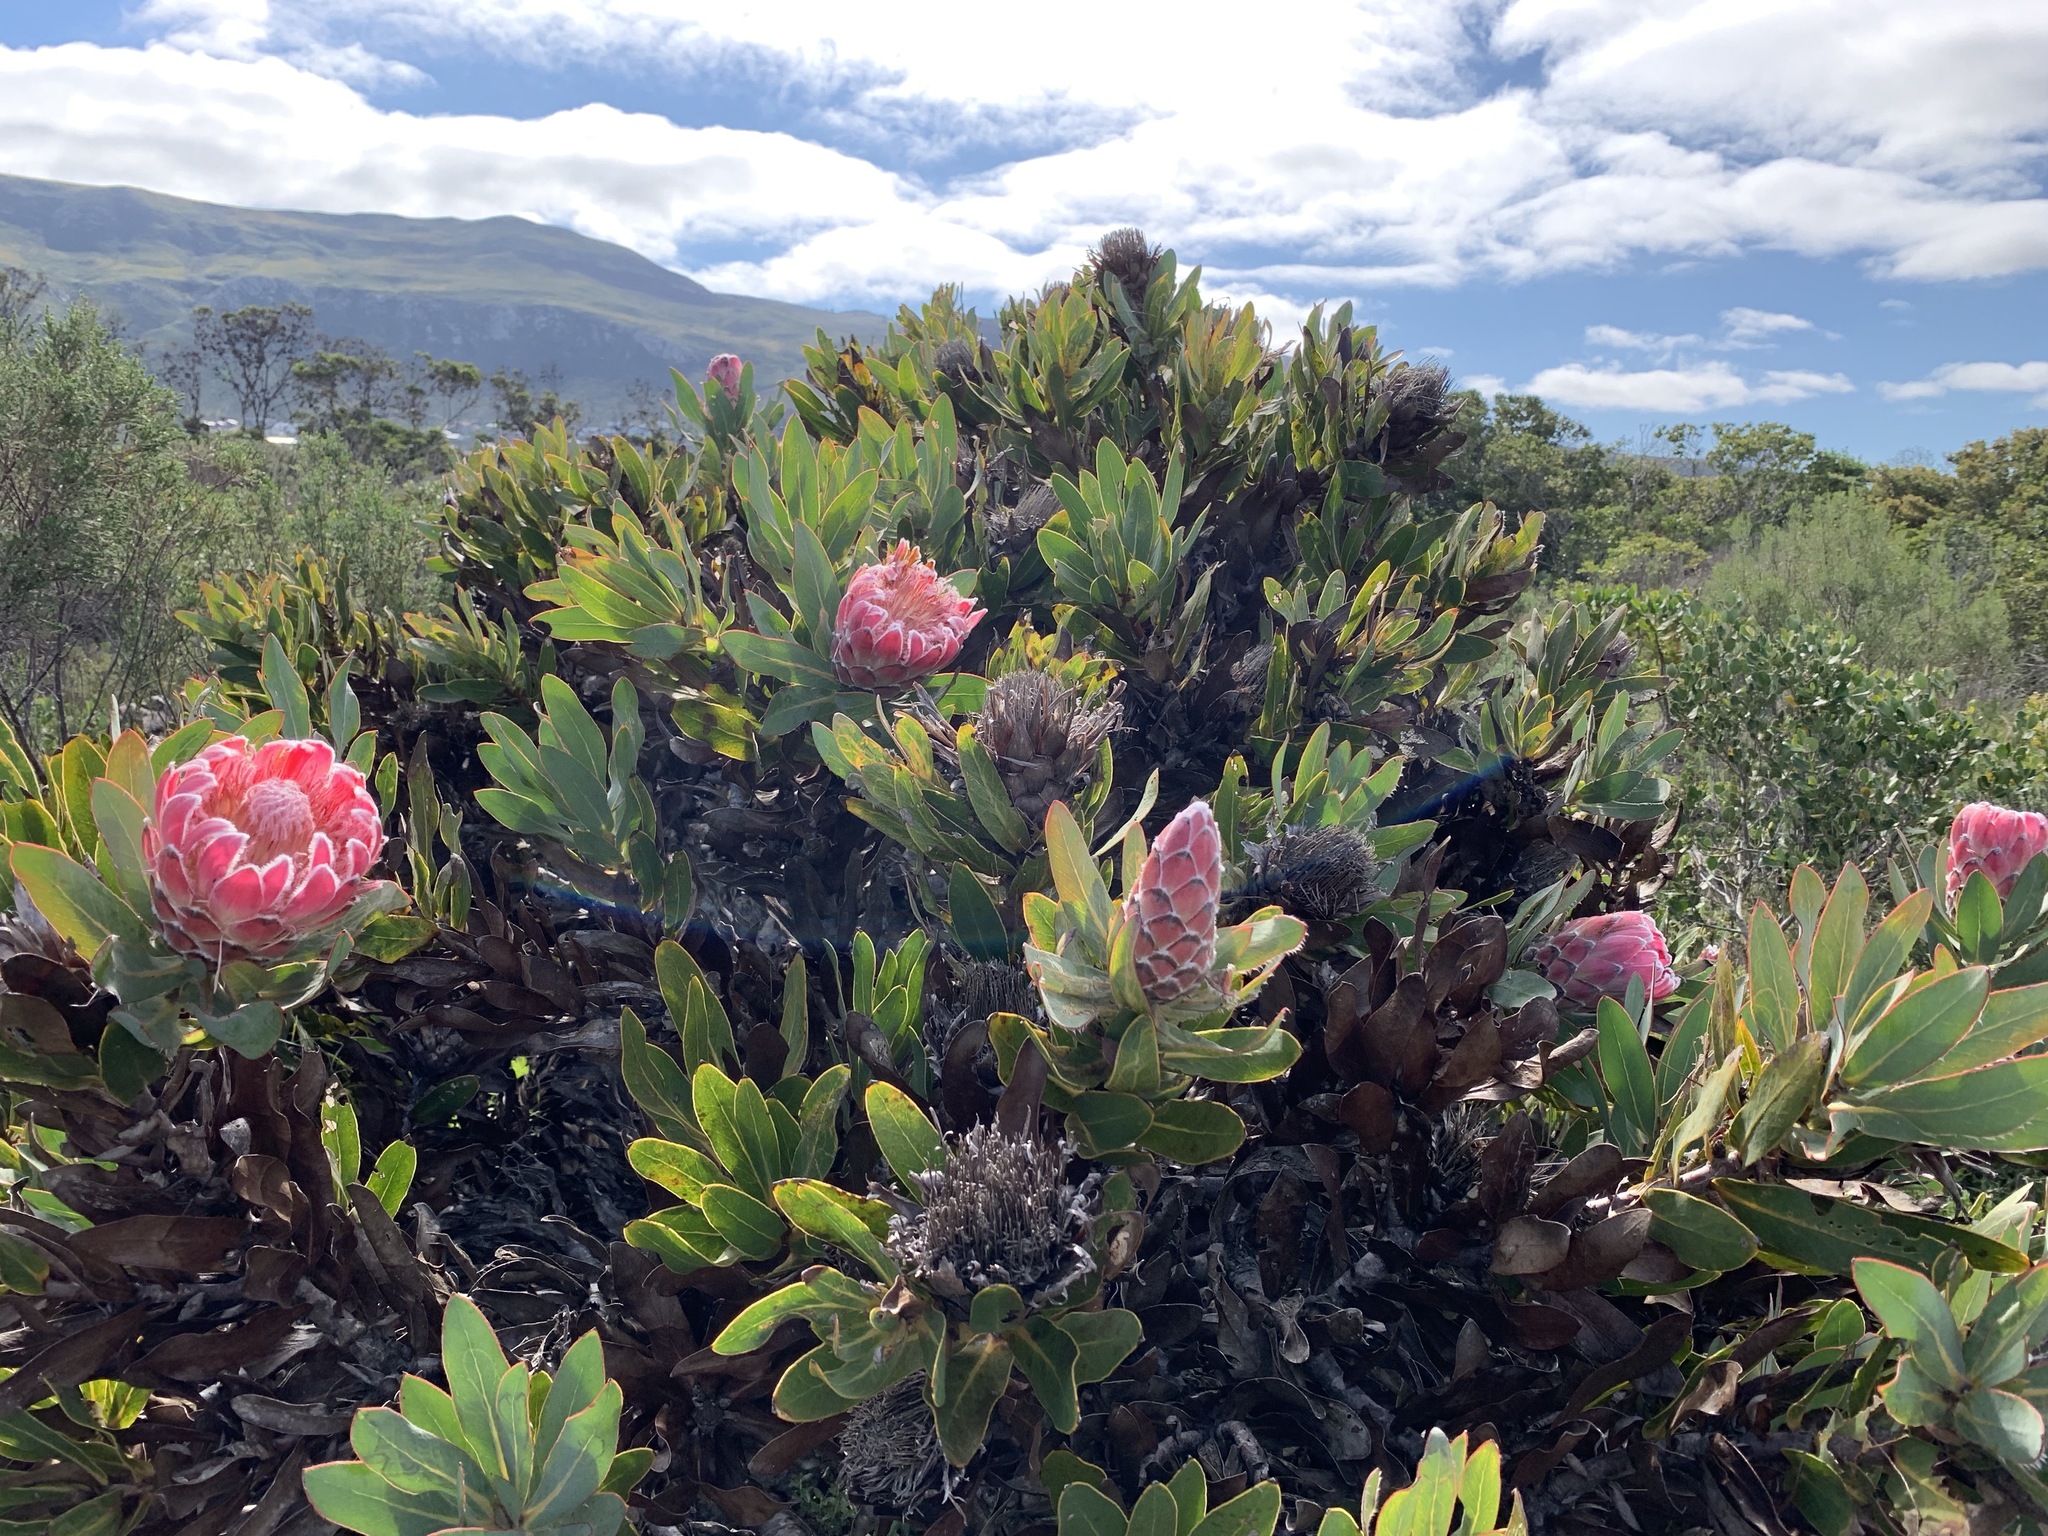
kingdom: Plantae
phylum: Tracheophyta
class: Magnoliopsida
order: Proteales
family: Proteaceae
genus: Protea
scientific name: Protea
